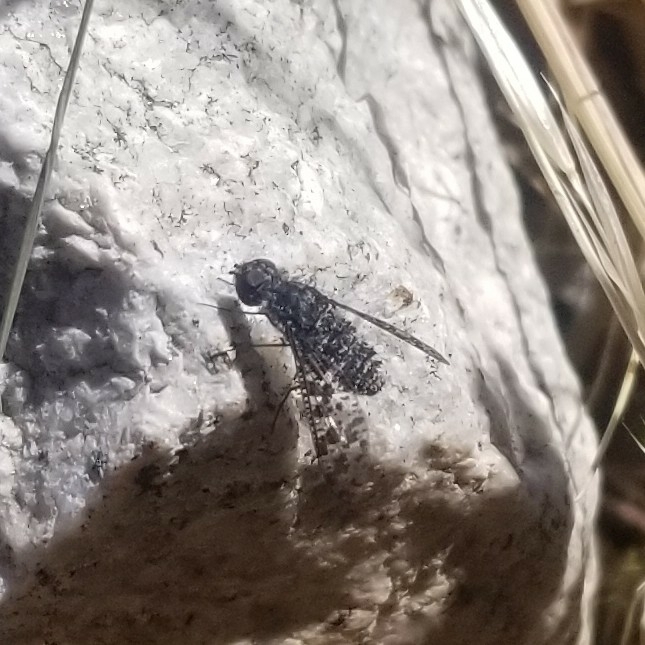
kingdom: Animalia
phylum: Arthropoda
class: Insecta
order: Diptera
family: Bombyliidae
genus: Anthrax
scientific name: Anthrax
